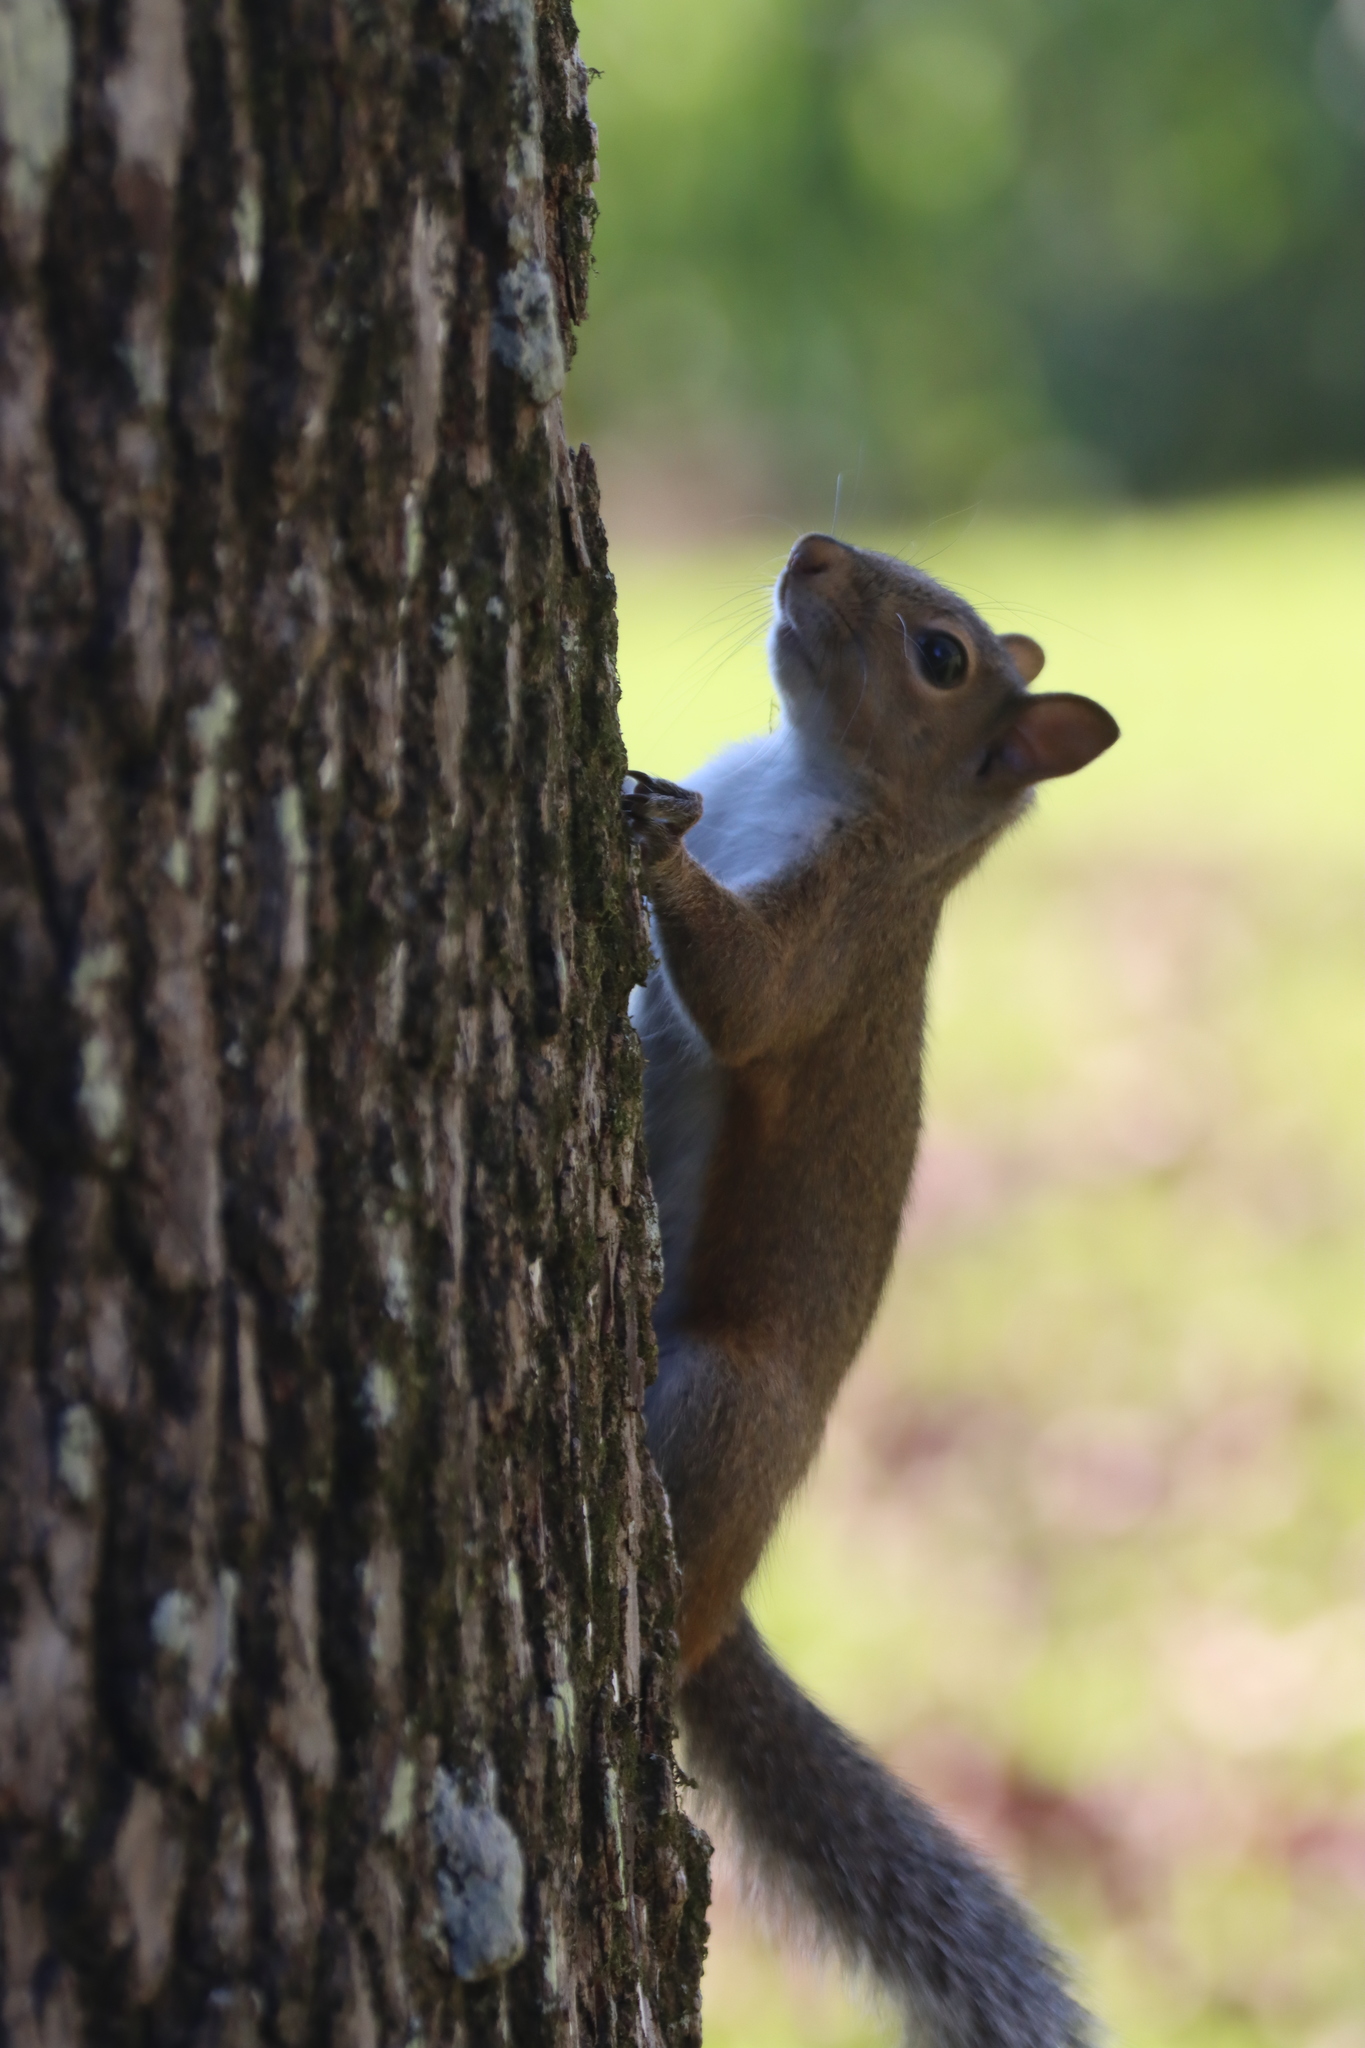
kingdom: Animalia
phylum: Chordata
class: Mammalia
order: Rodentia
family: Sciuridae
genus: Sciurus
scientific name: Sciurus carolinensis
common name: Eastern gray squirrel
